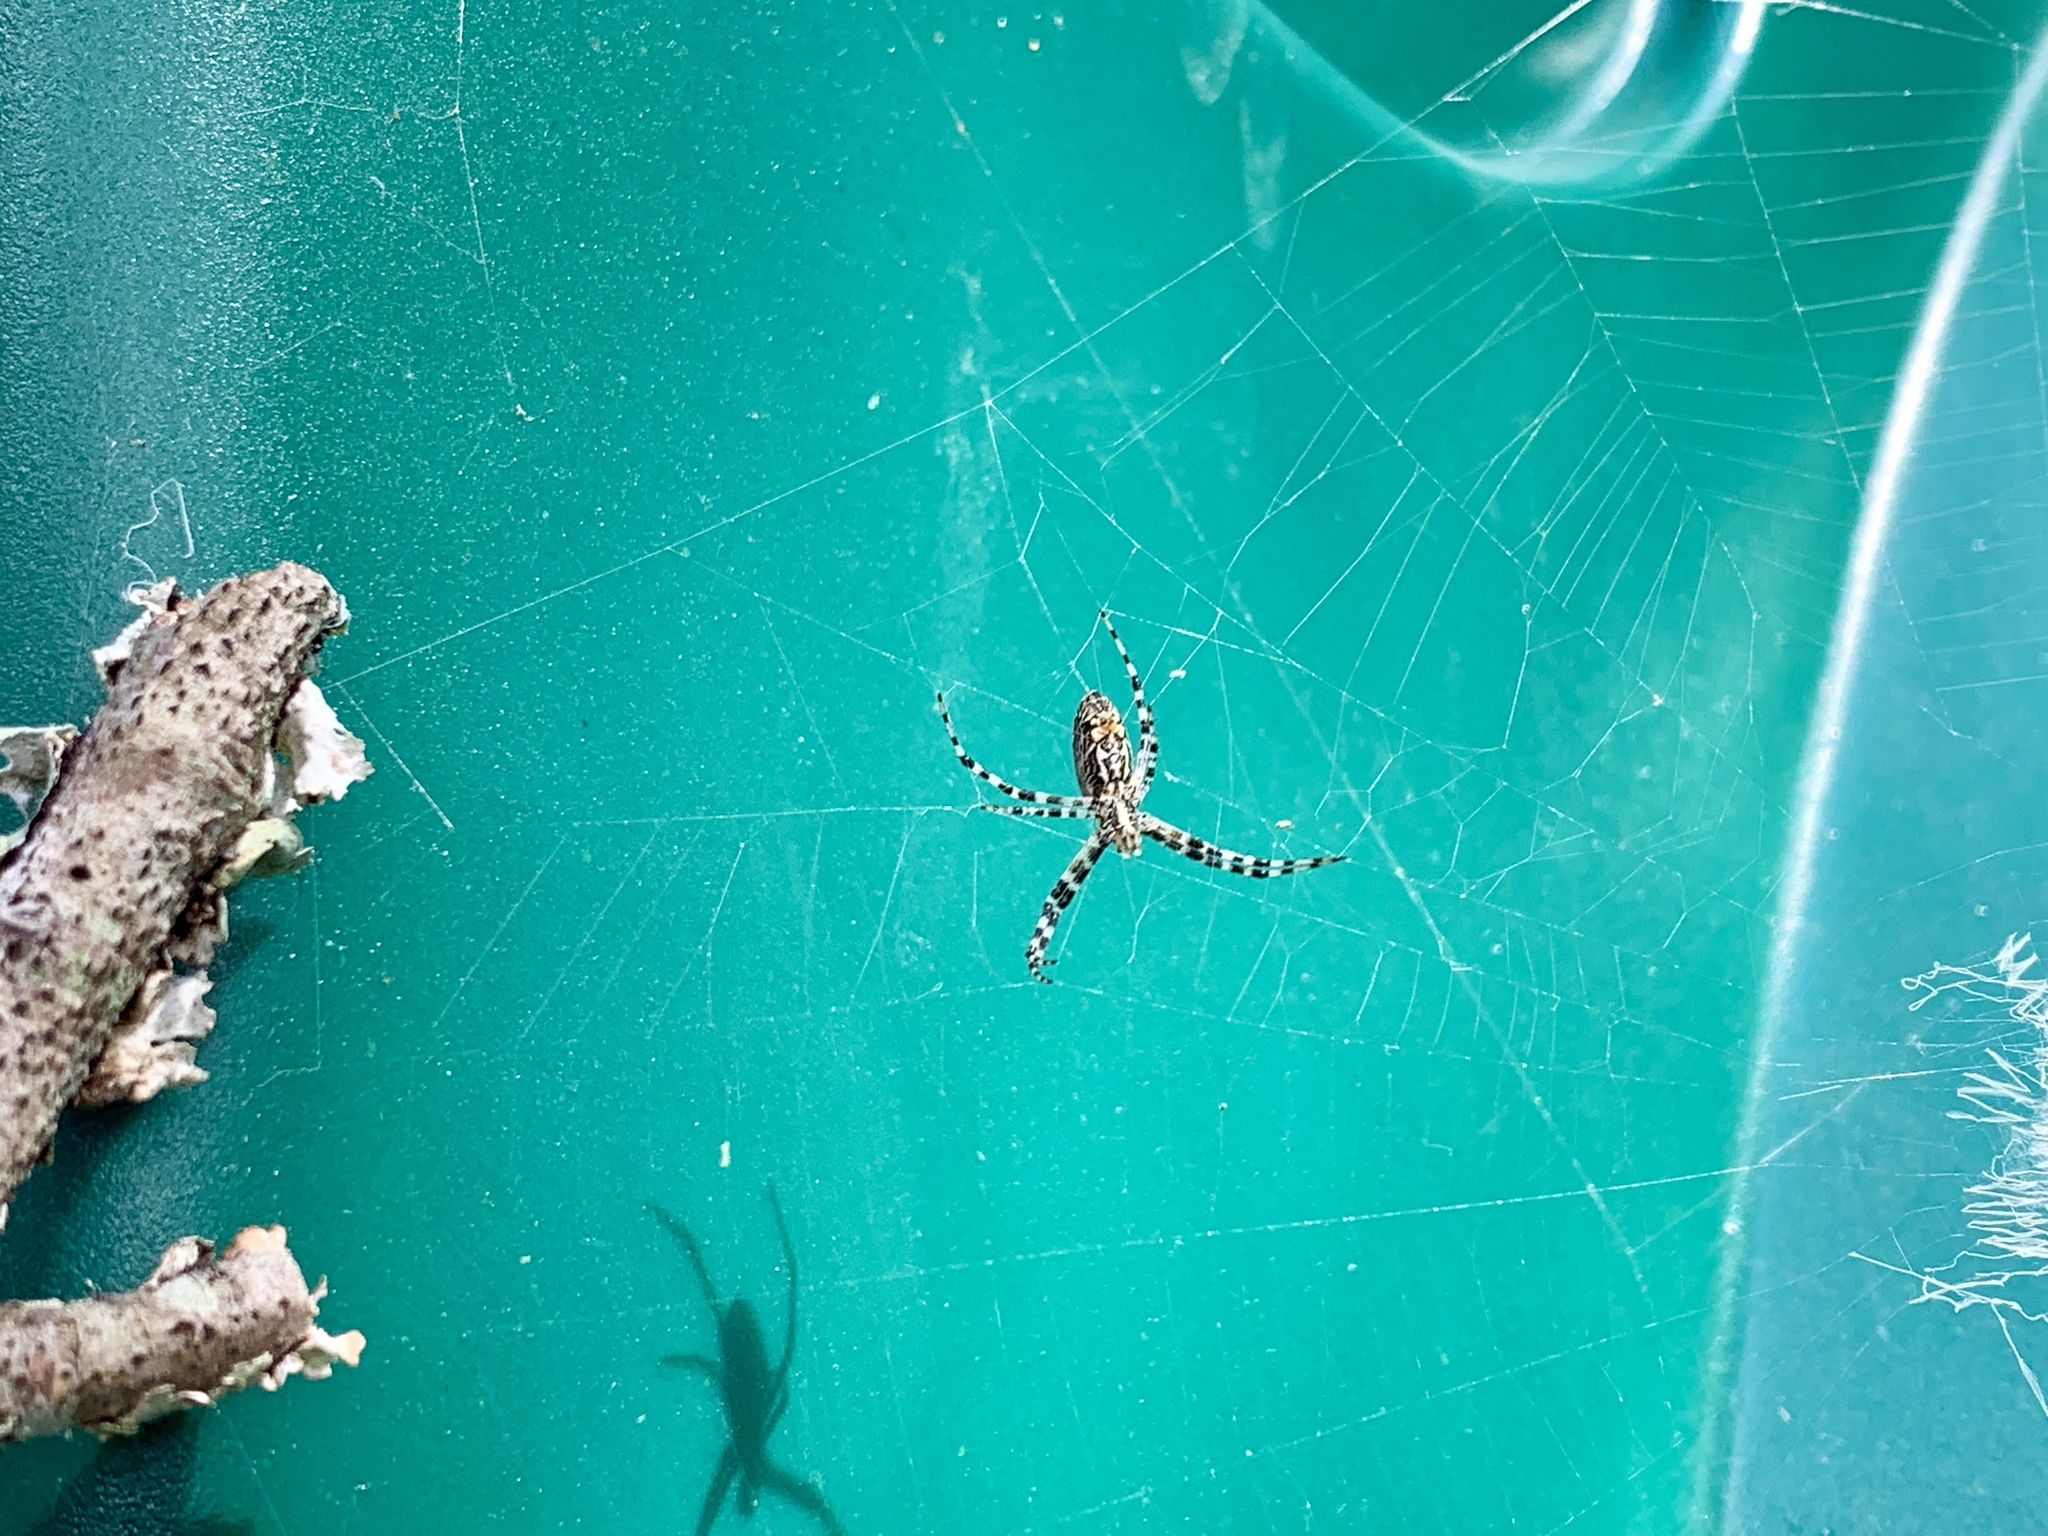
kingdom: Animalia
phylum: Arthropoda
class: Arachnida
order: Araneae
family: Araneidae
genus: Argiope
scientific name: Argiope trifasciata
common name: Banded garden spider
